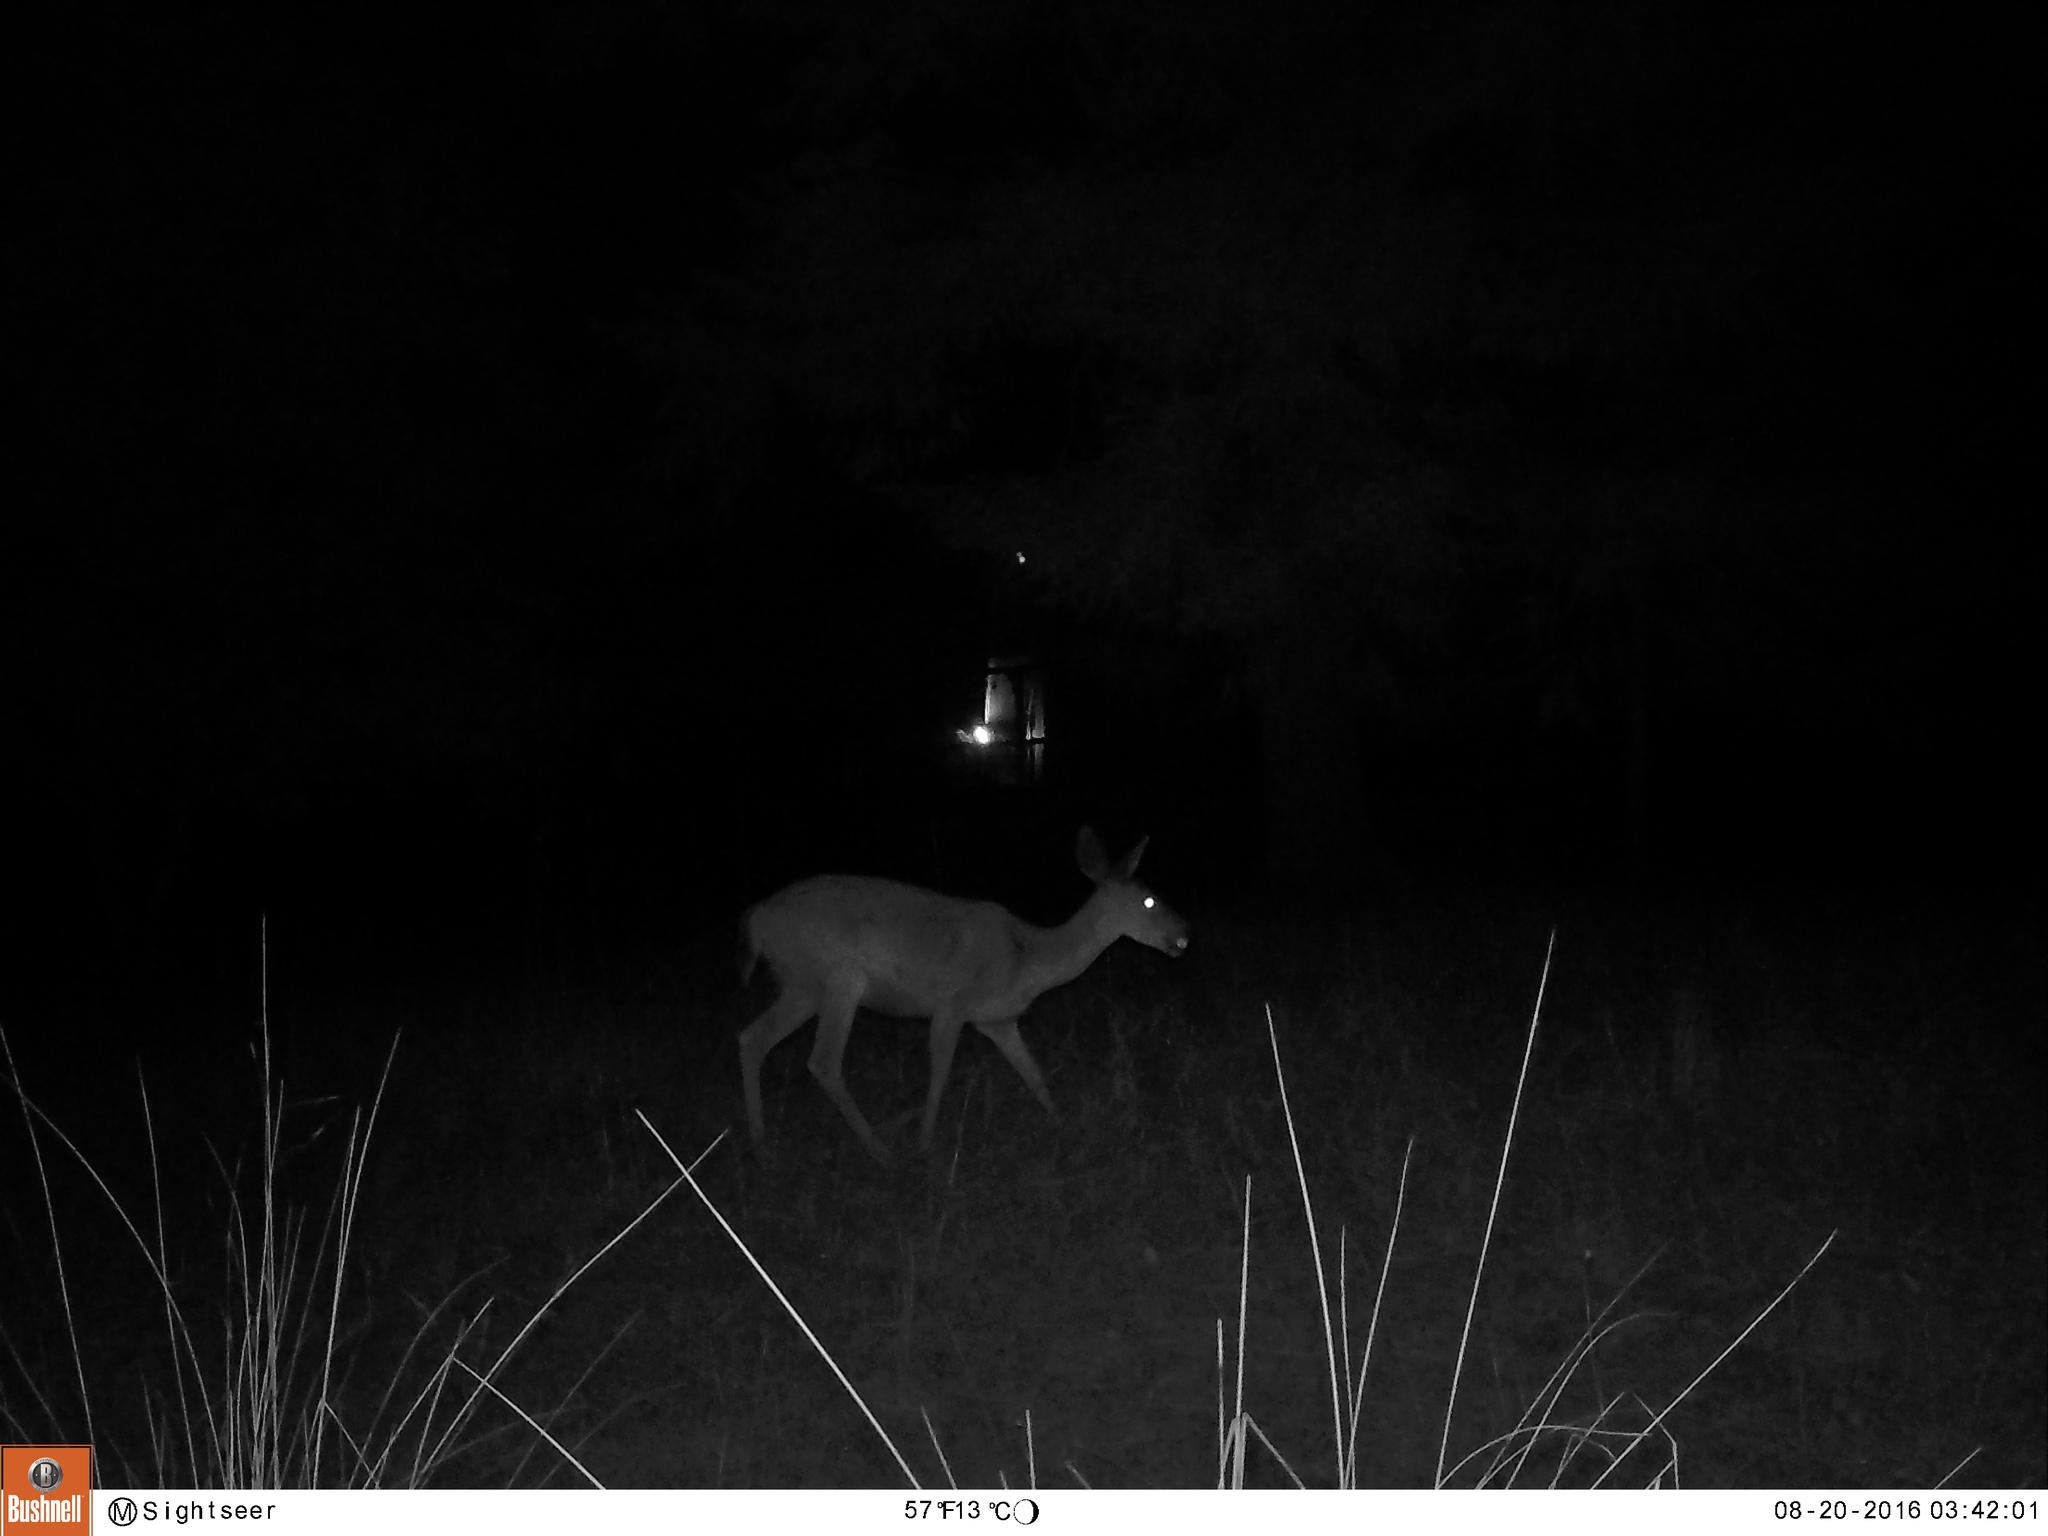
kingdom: Animalia
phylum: Chordata
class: Mammalia
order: Artiodactyla
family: Cervidae
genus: Odocoileus
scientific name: Odocoileus hemionus
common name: Mule deer
